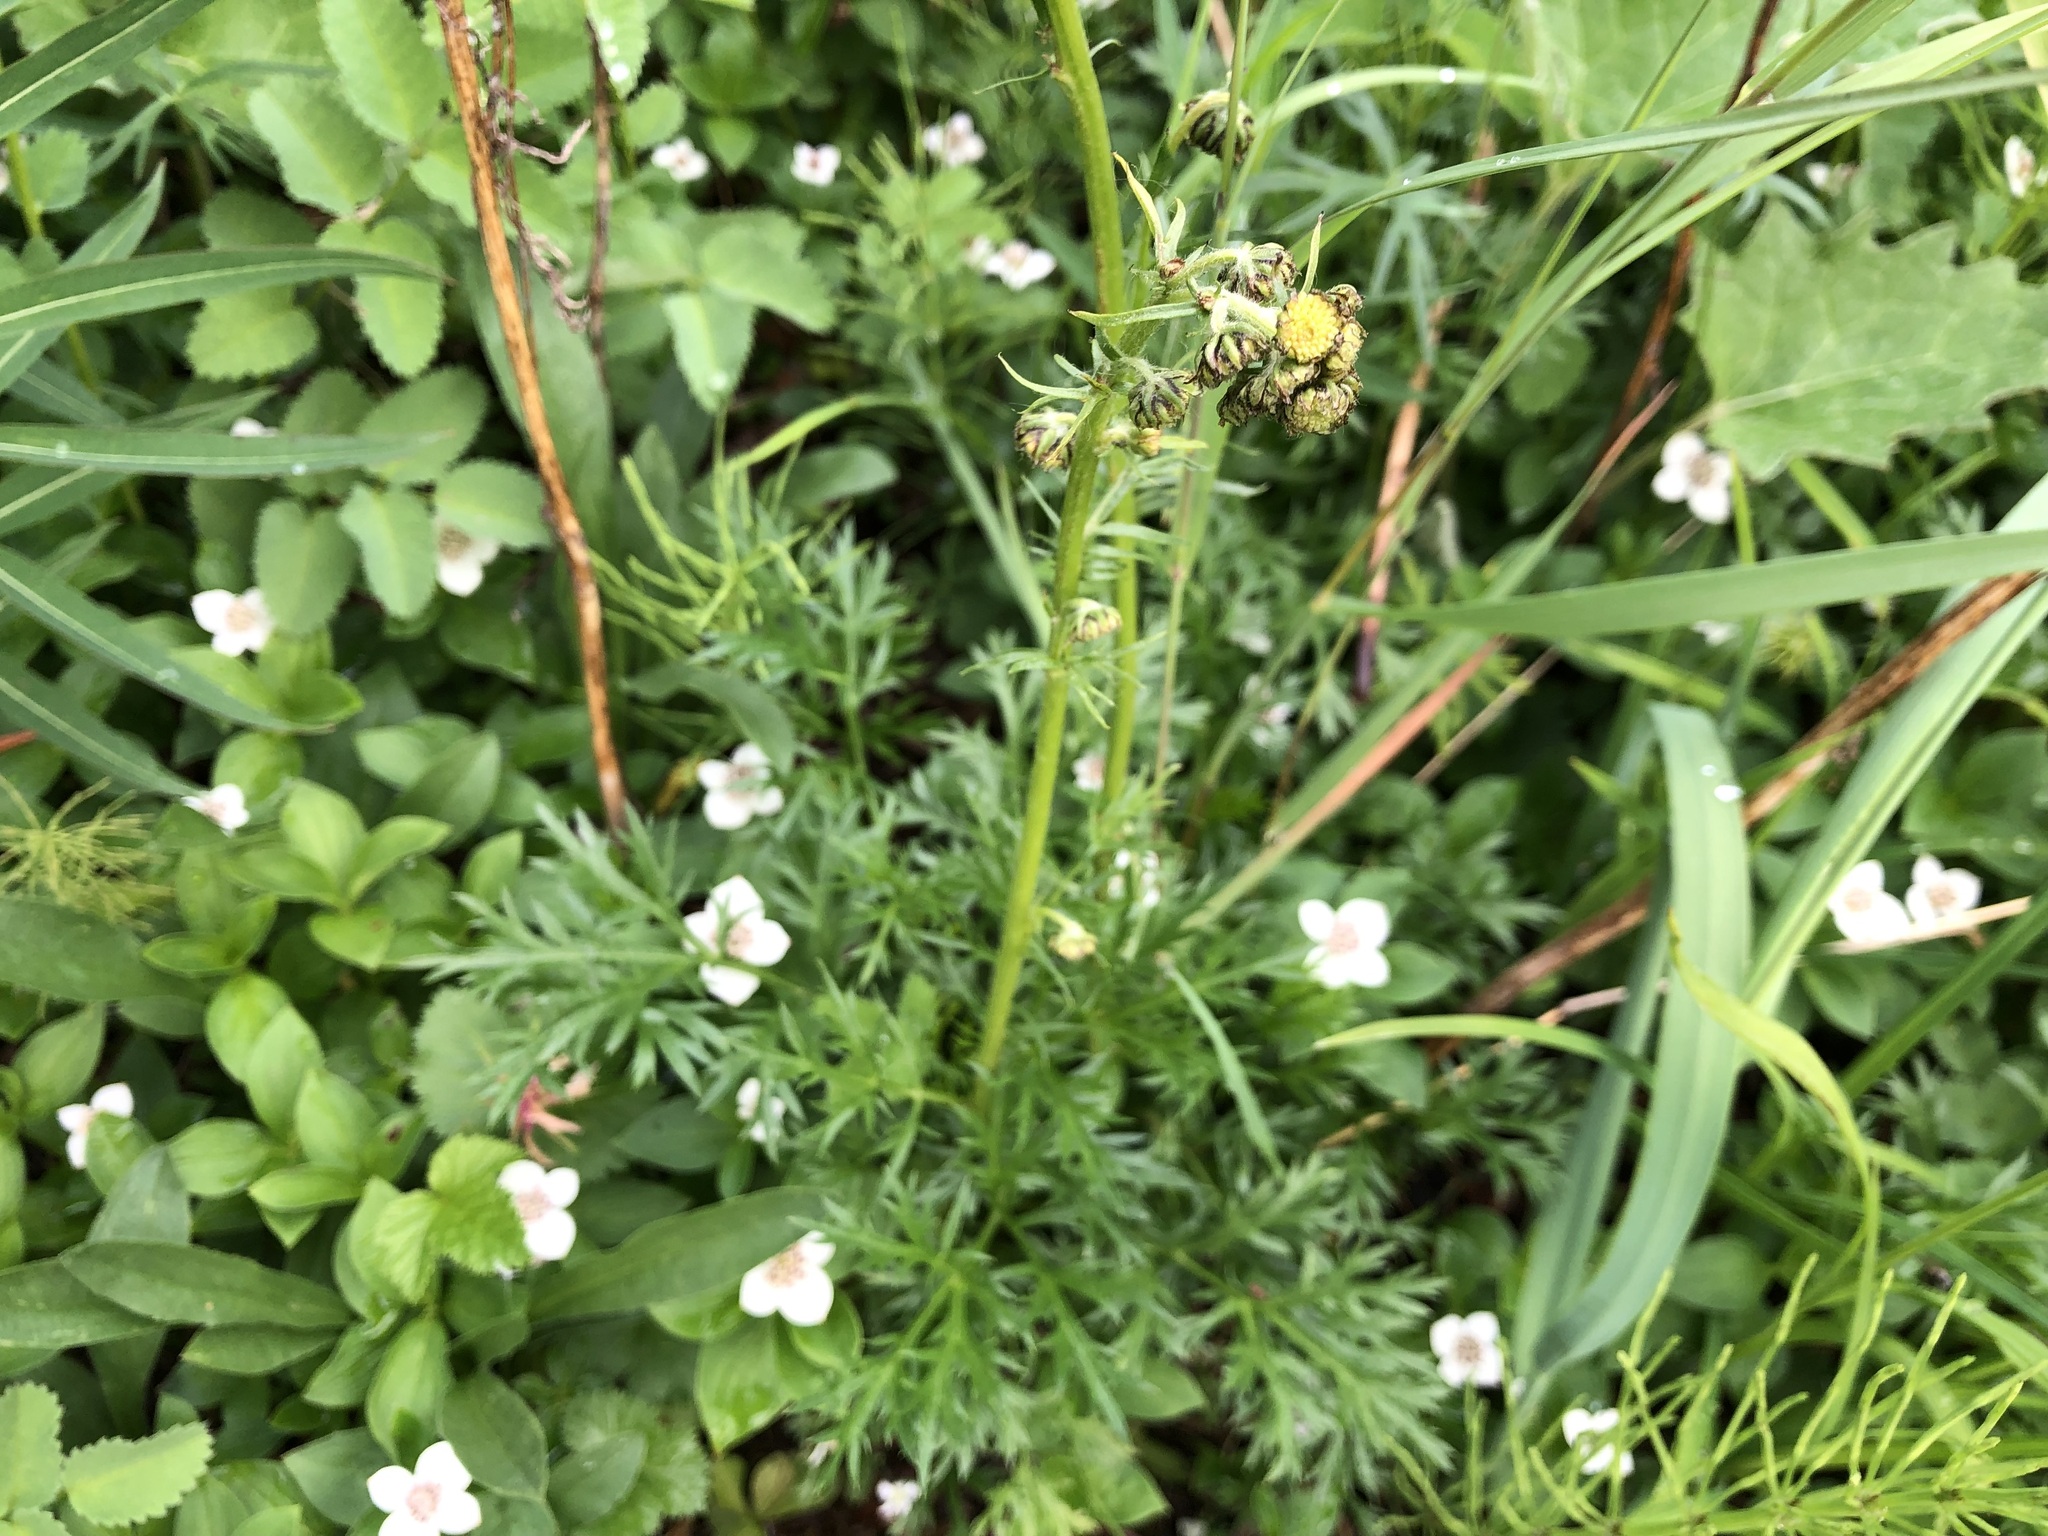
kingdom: Plantae
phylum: Tracheophyta
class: Magnoliopsida
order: Asterales
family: Asteraceae
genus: Artemisia
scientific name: Artemisia arctica
